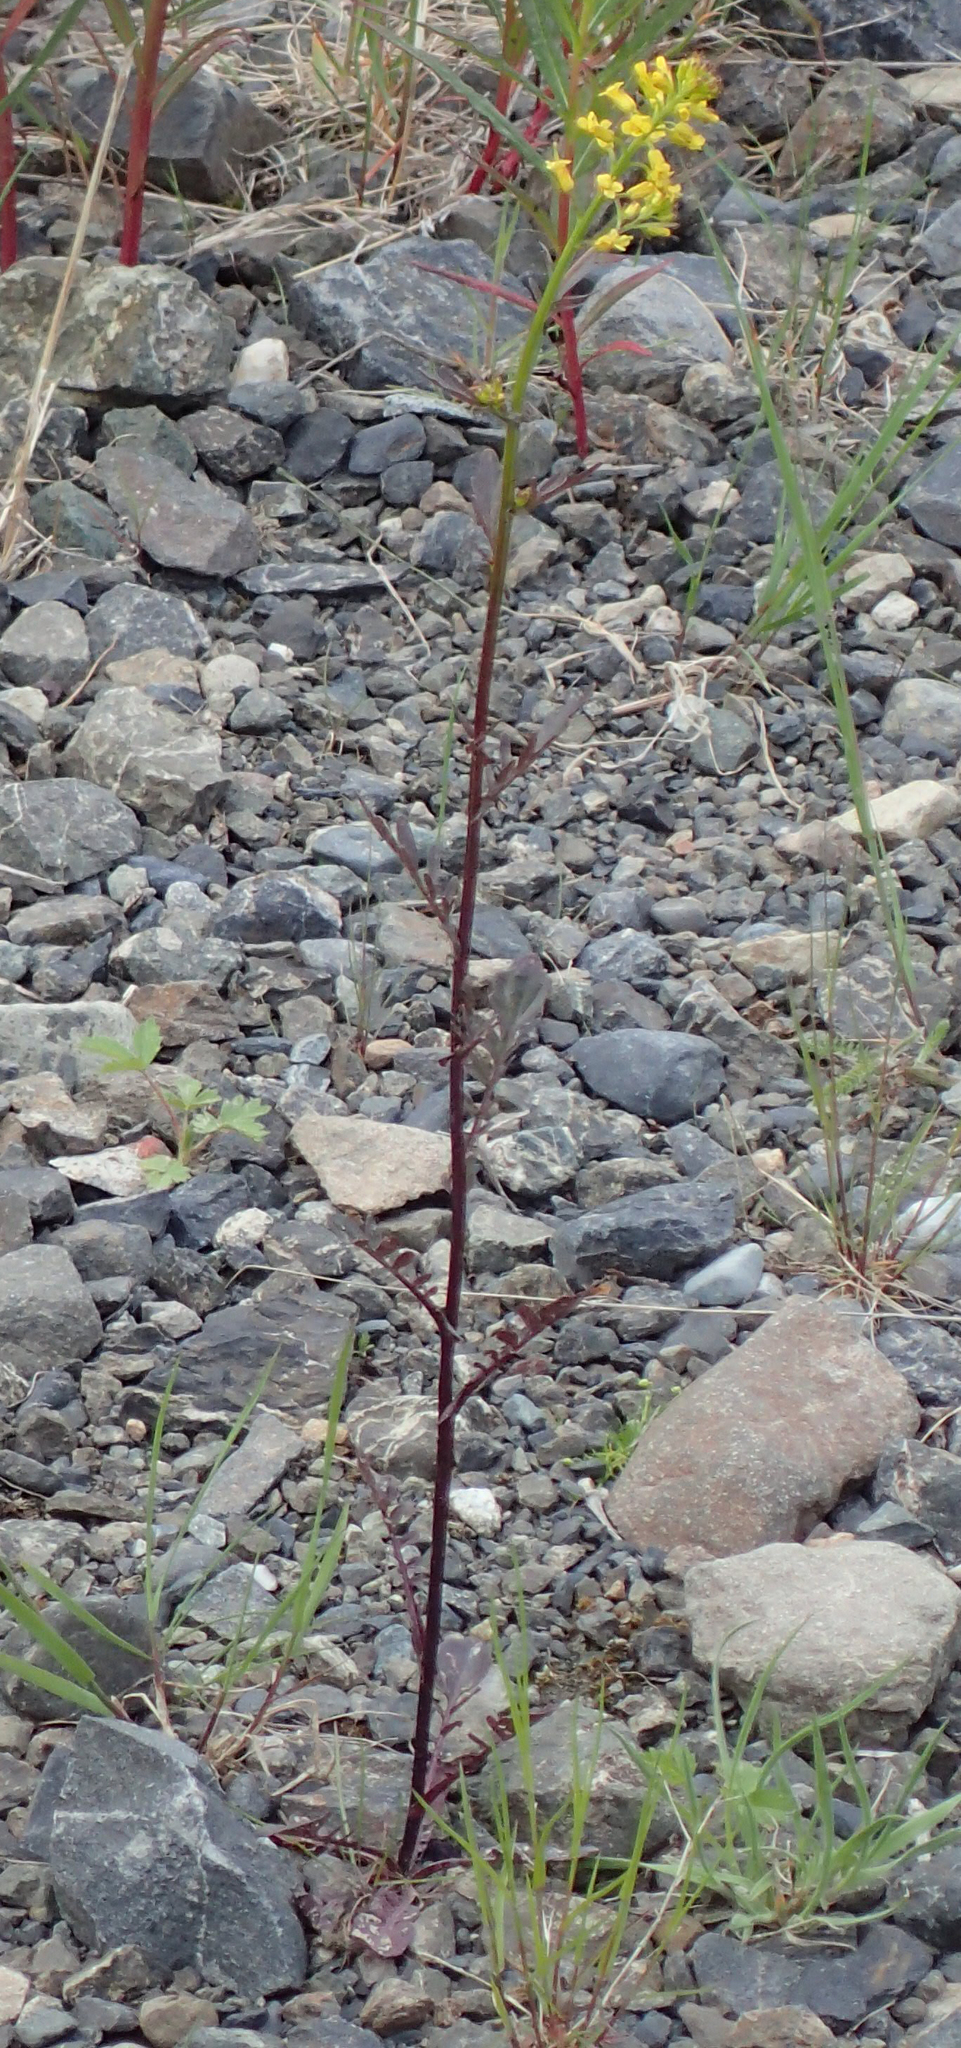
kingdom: Plantae
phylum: Tracheophyta
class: Magnoliopsida
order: Brassicales
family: Brassicaceae
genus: Barbarea
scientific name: Barbarea orthoceras
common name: American wintercress
